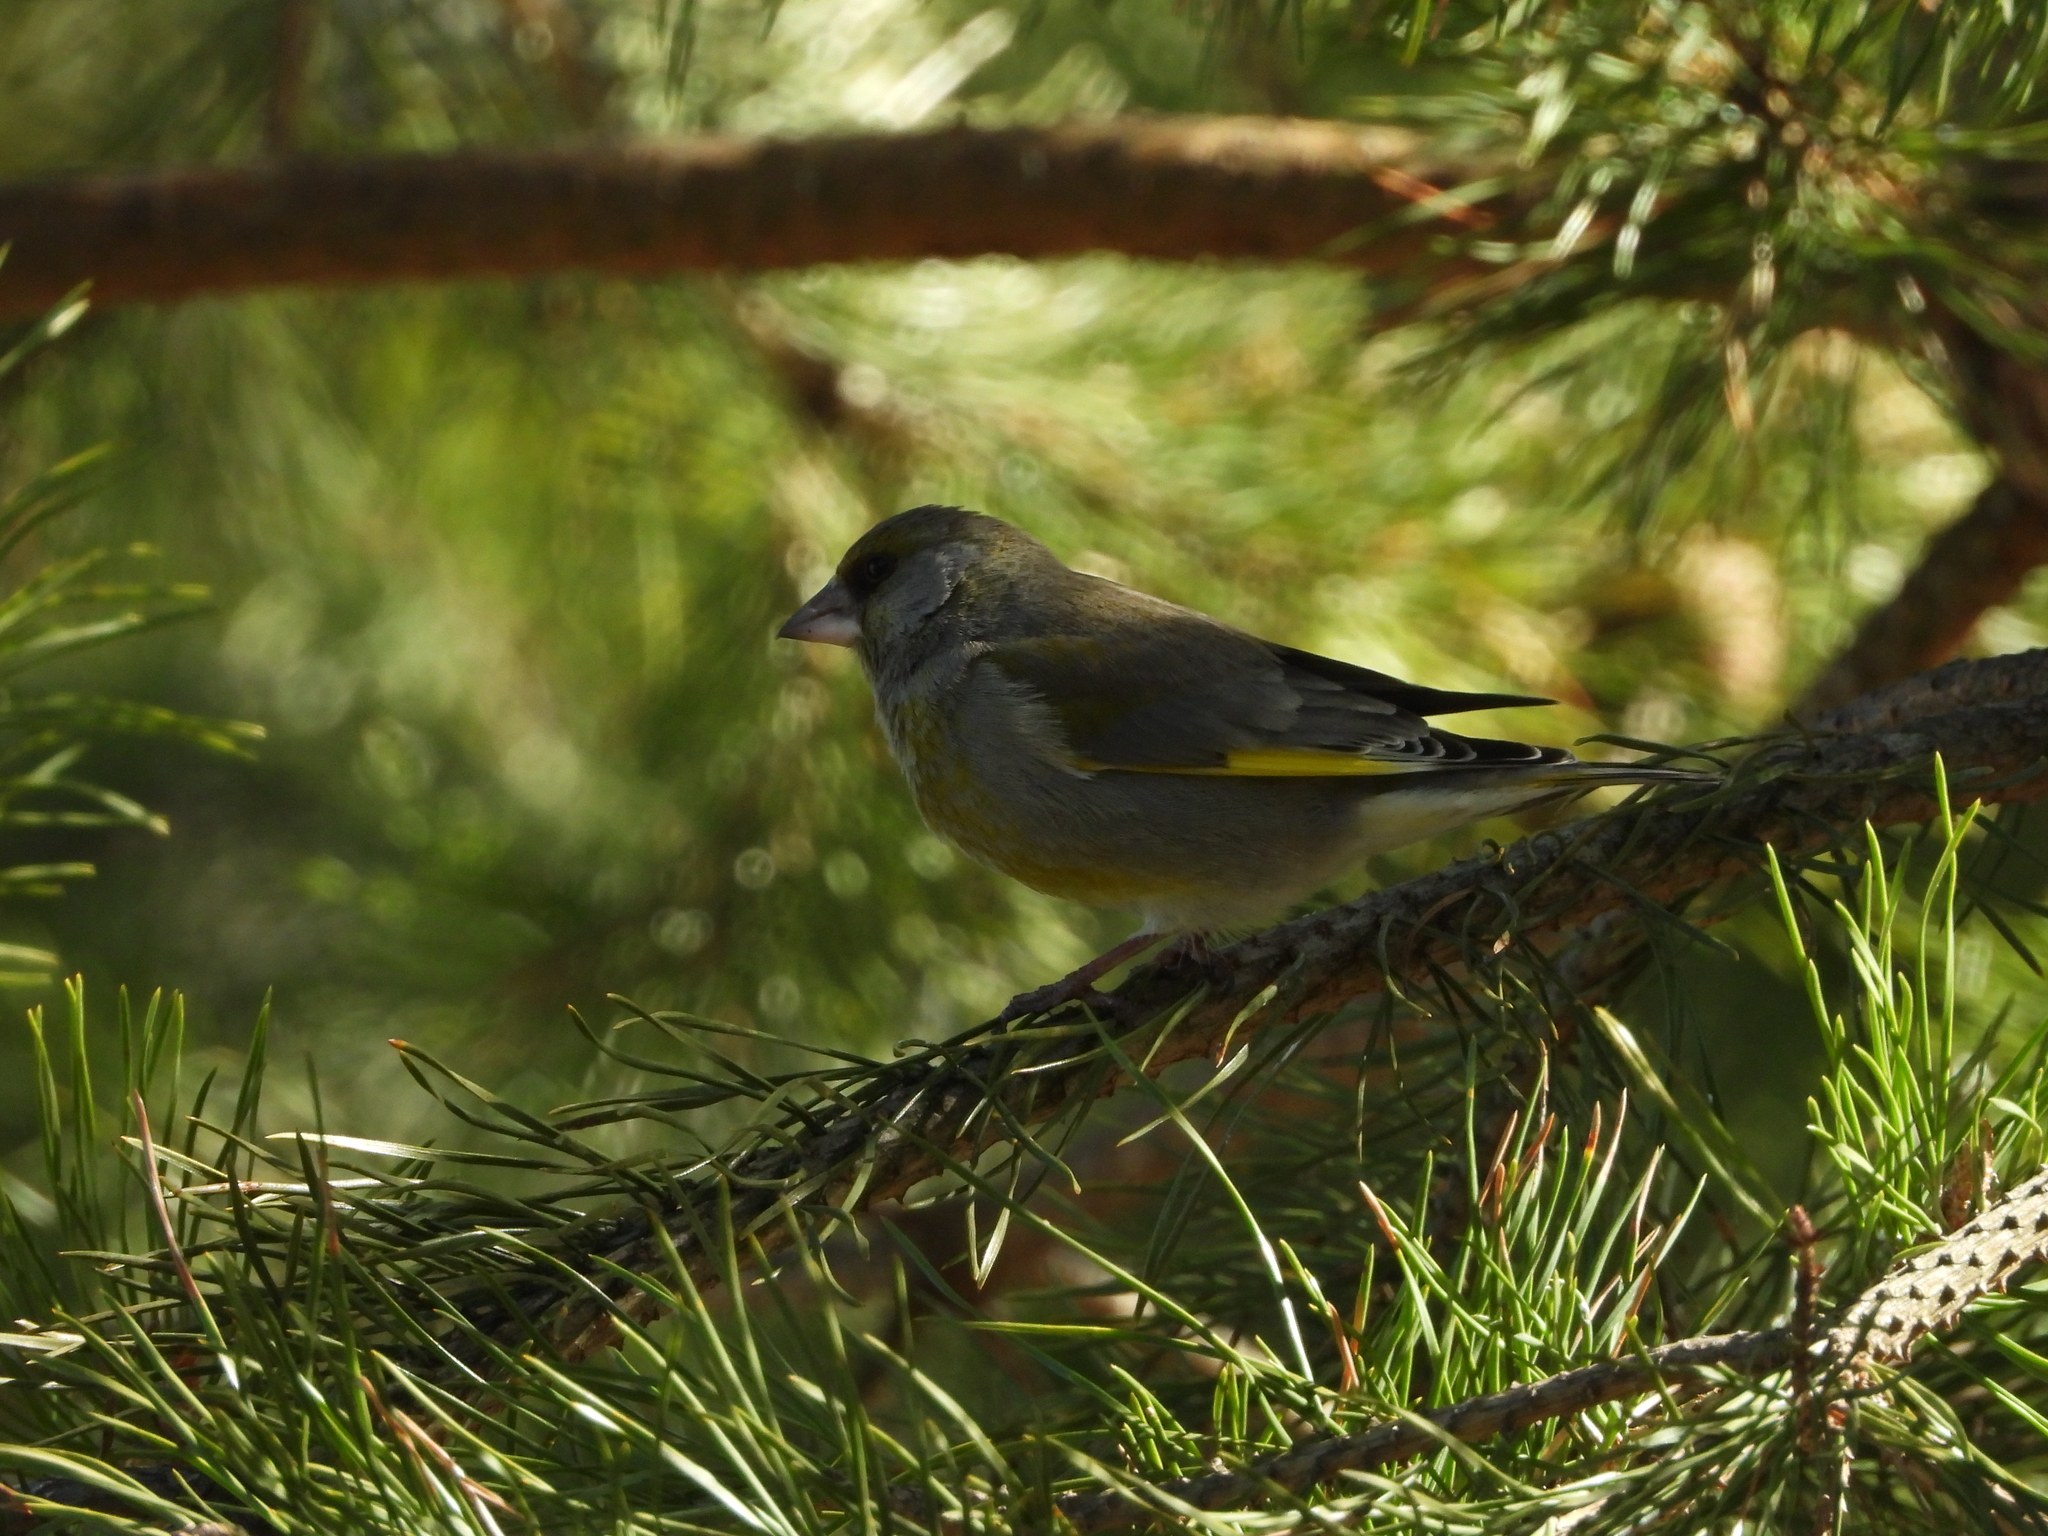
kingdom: Plantae
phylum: Tracheophyta
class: Liliopsida
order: Poales
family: Poaceae
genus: Chloris
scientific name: Chloris chloris
